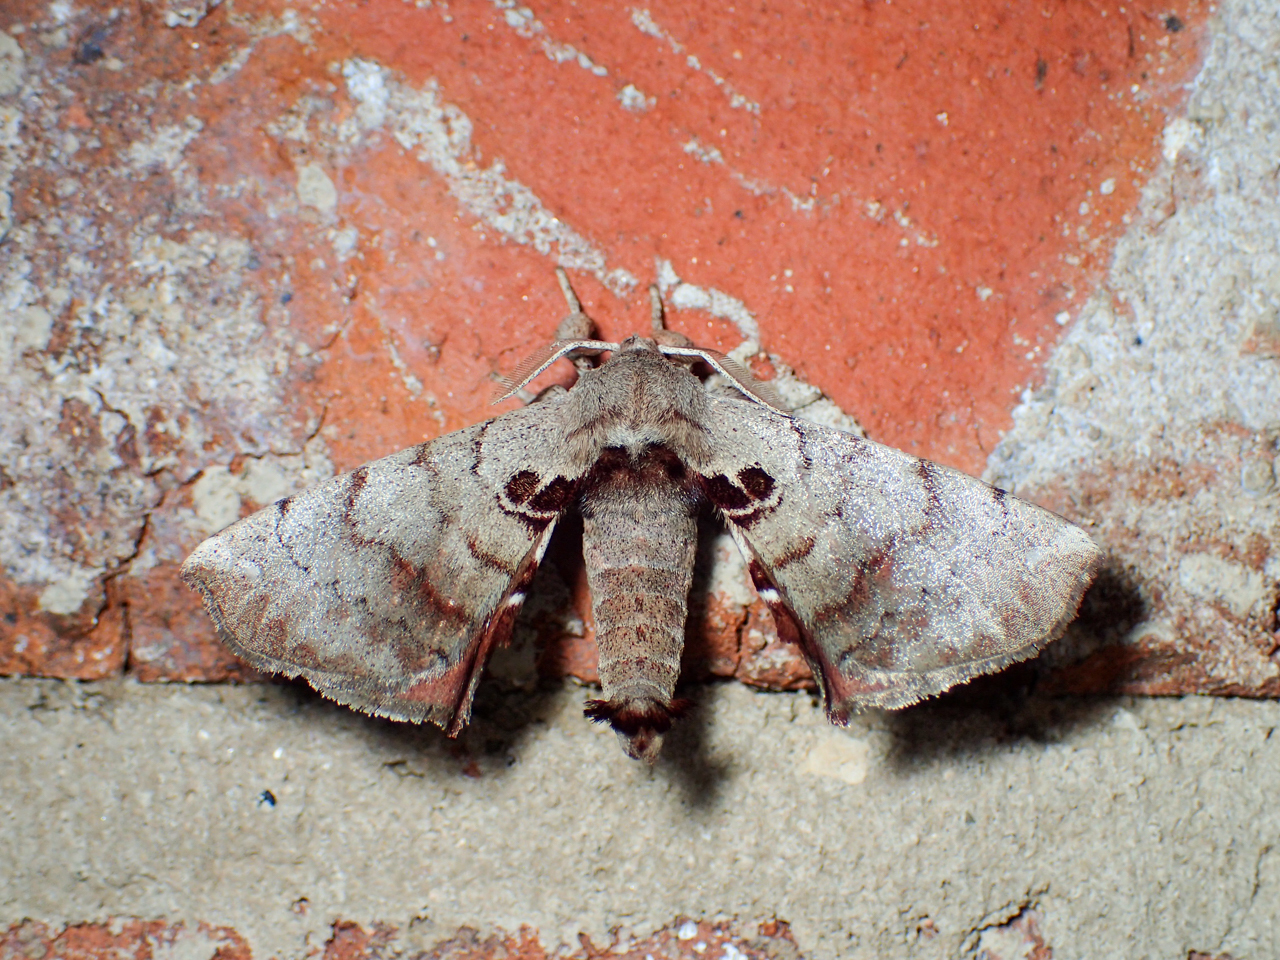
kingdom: Animalia
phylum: Arthropoda
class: Insecta
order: Lepidoptera
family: Apatelodidae
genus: Hygrochroa
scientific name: Hygrochroa Apatelodes torrefacta
